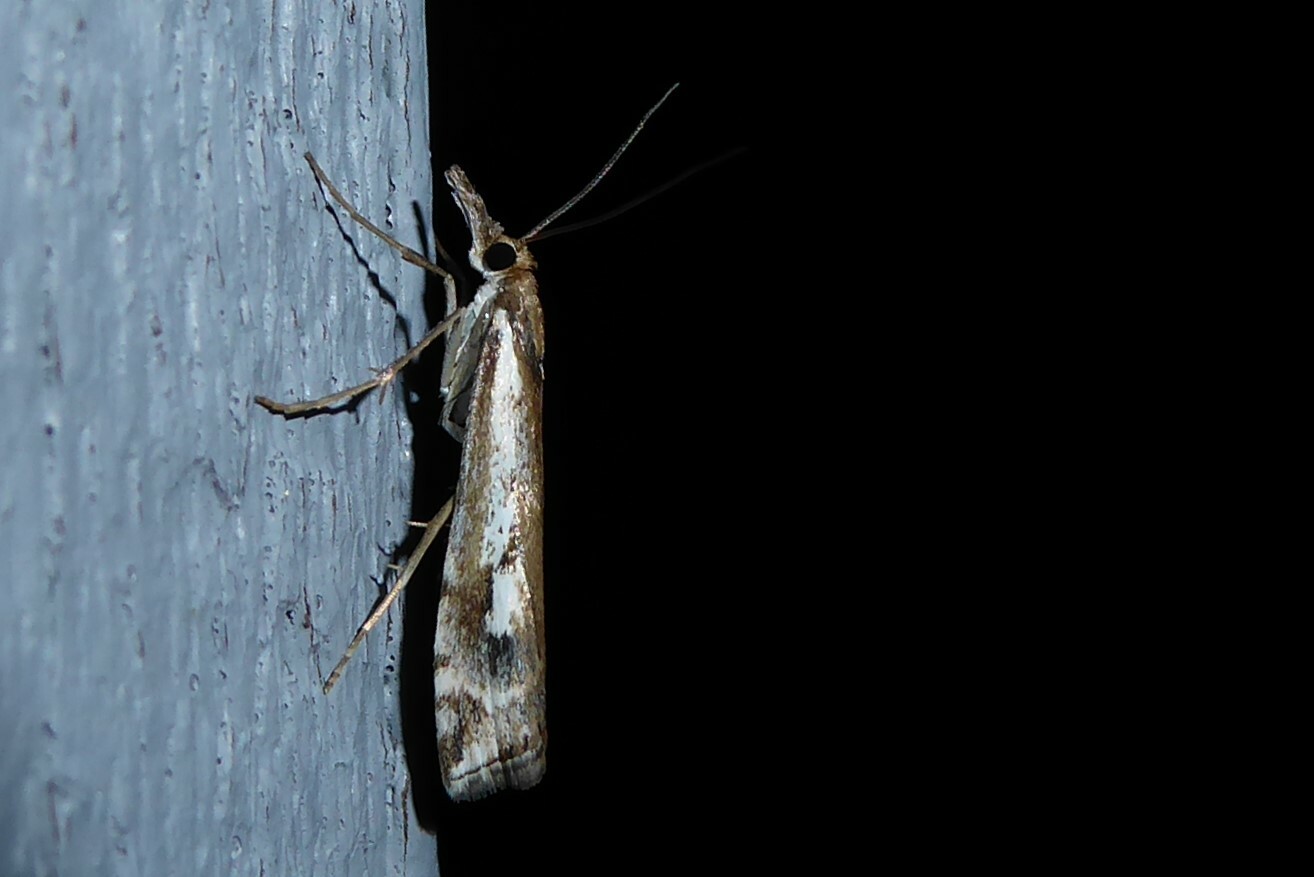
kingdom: Animalia
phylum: Arthropoda
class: Insecta
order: Lepidoptera
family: Crambidae
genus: Orocrambus
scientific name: Orocrambus vulgaris
